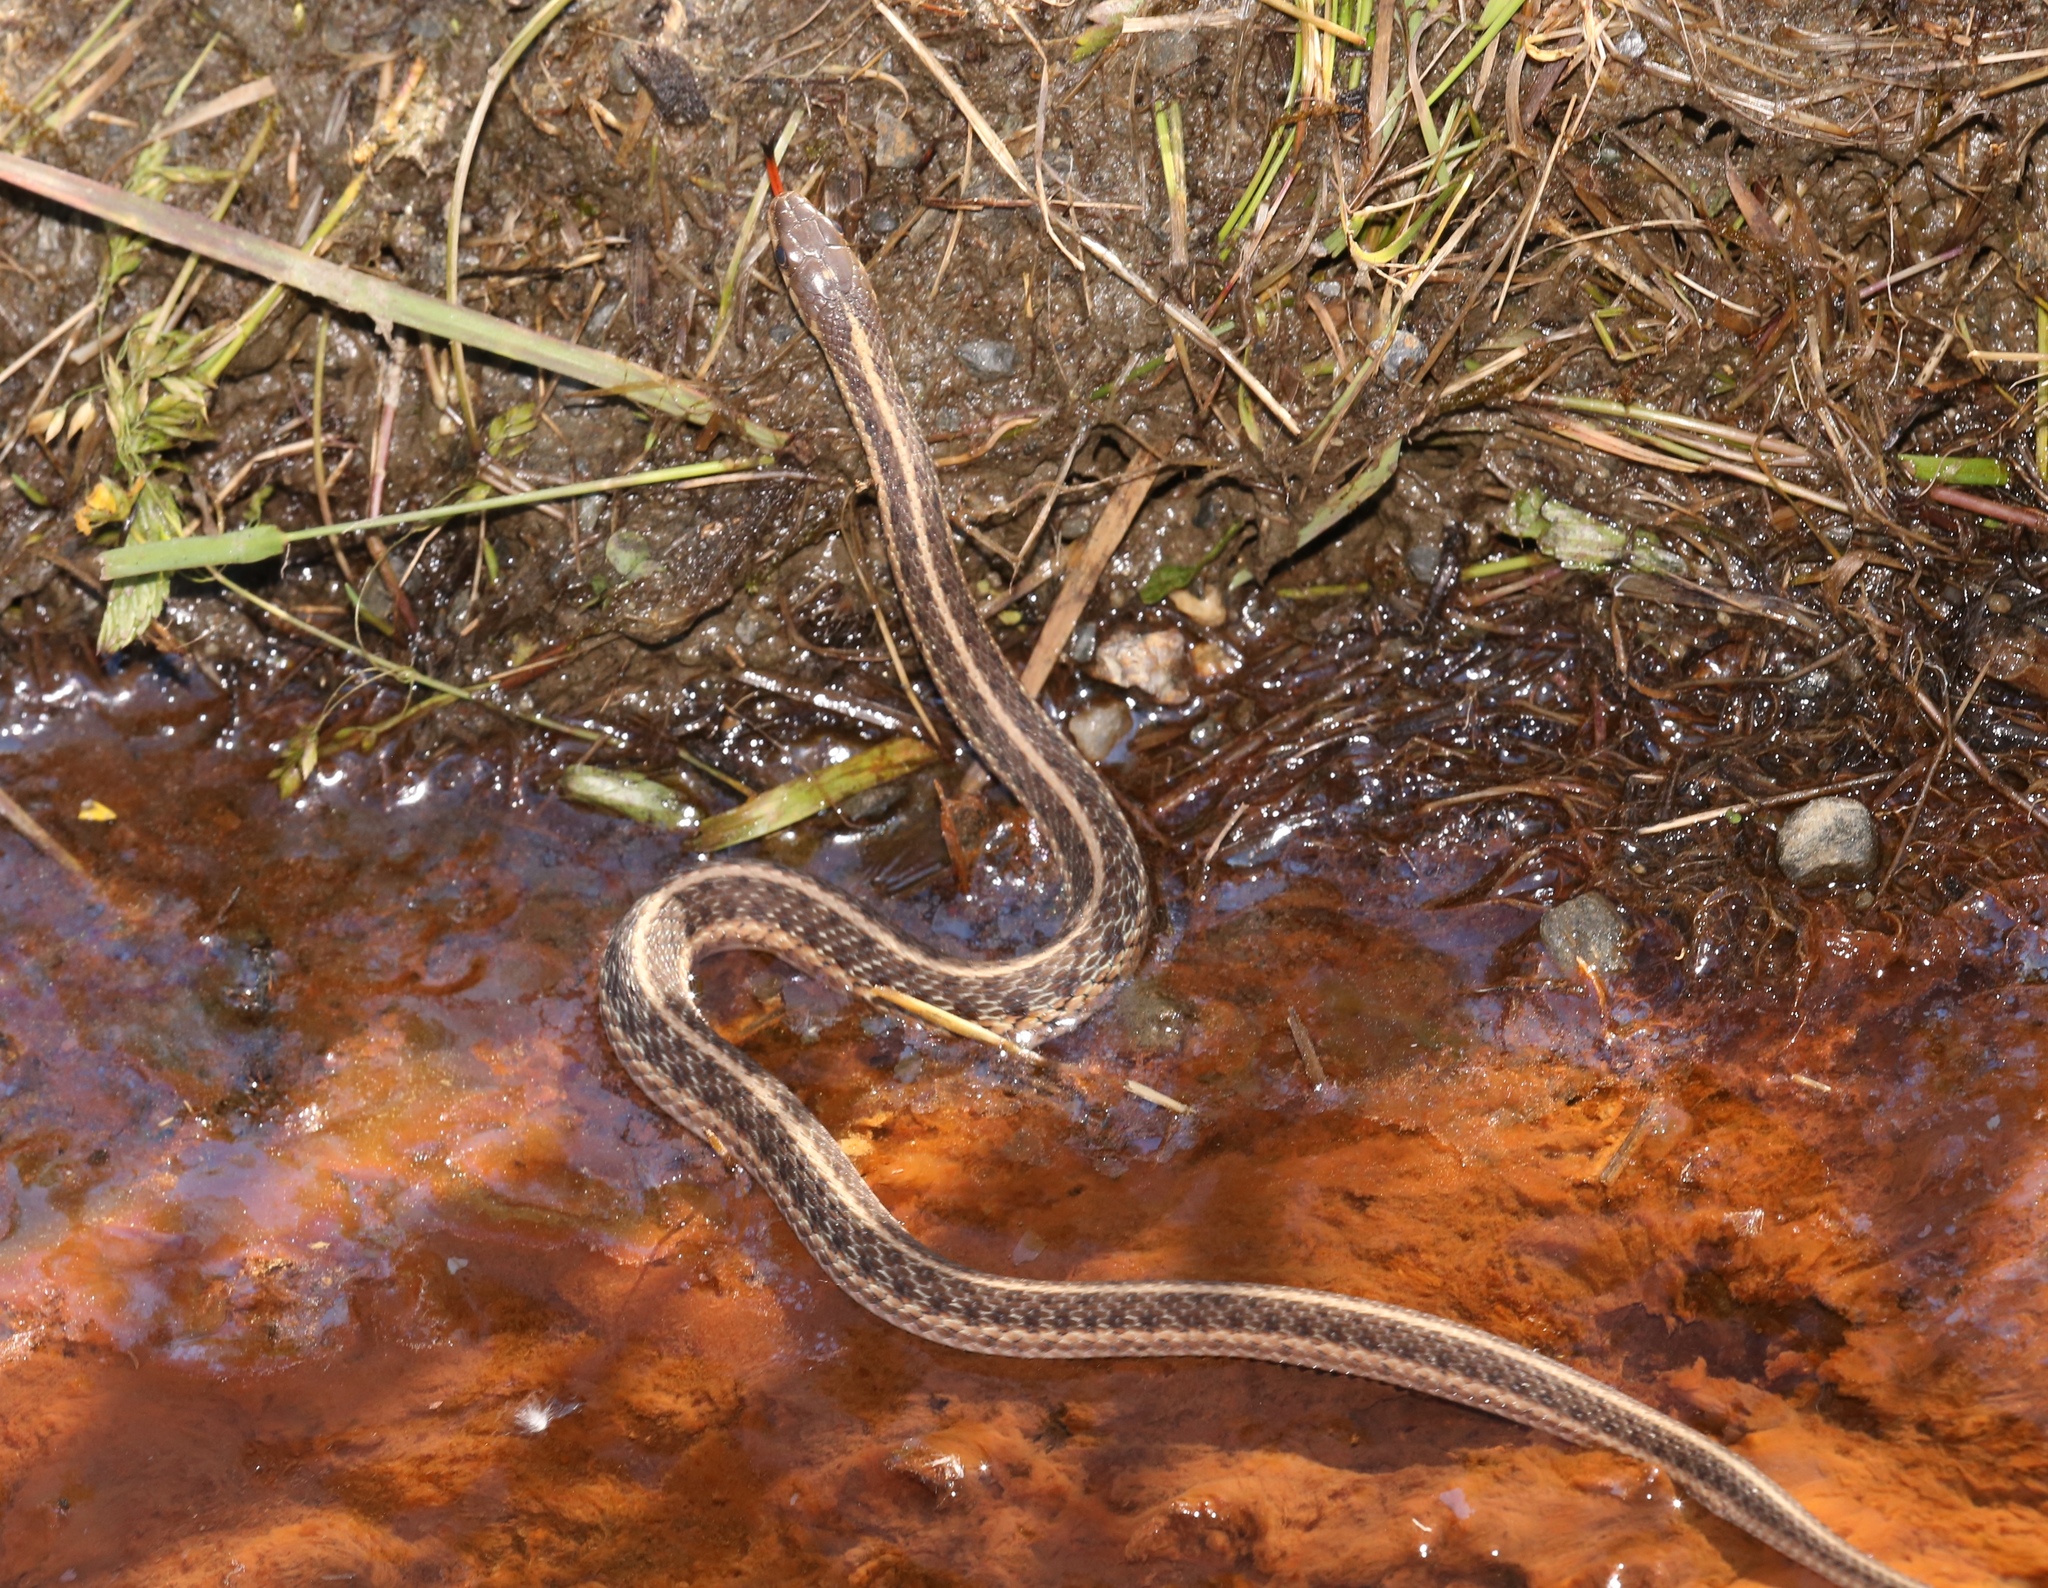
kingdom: Animalia
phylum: Chordata
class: Squamata
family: Colubridae
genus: Thamnophis
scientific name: Thamnophis sirtalis
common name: Common garter snake
